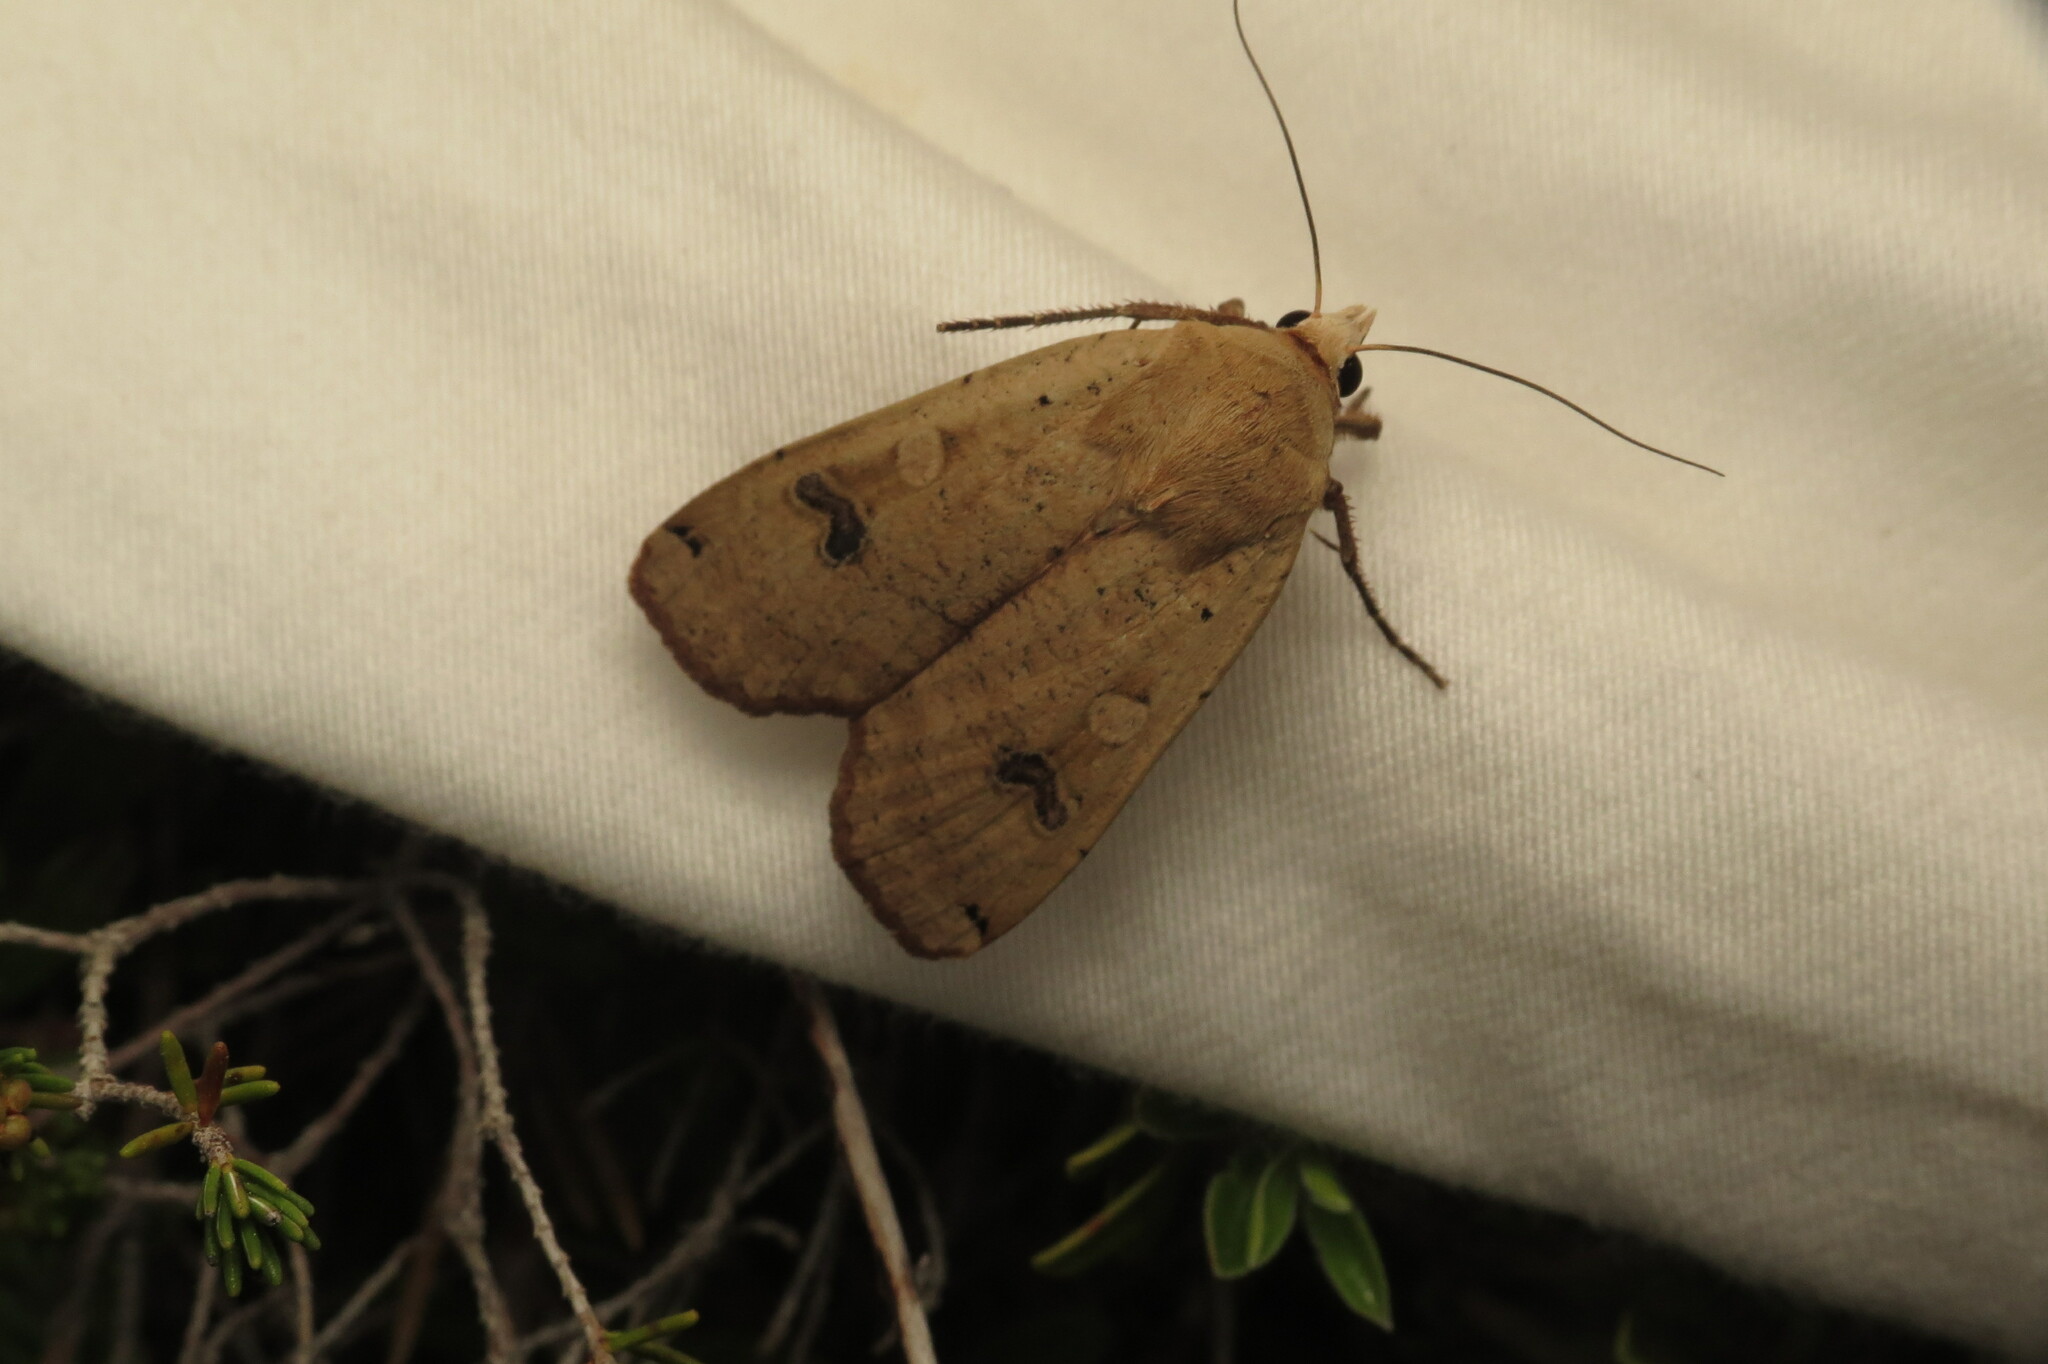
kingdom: Animalia
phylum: Arthropoda
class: Insecta
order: Lepidoptera
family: Noctuidae
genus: Noctua
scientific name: Noctua pronuba
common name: Large yellow underwing
